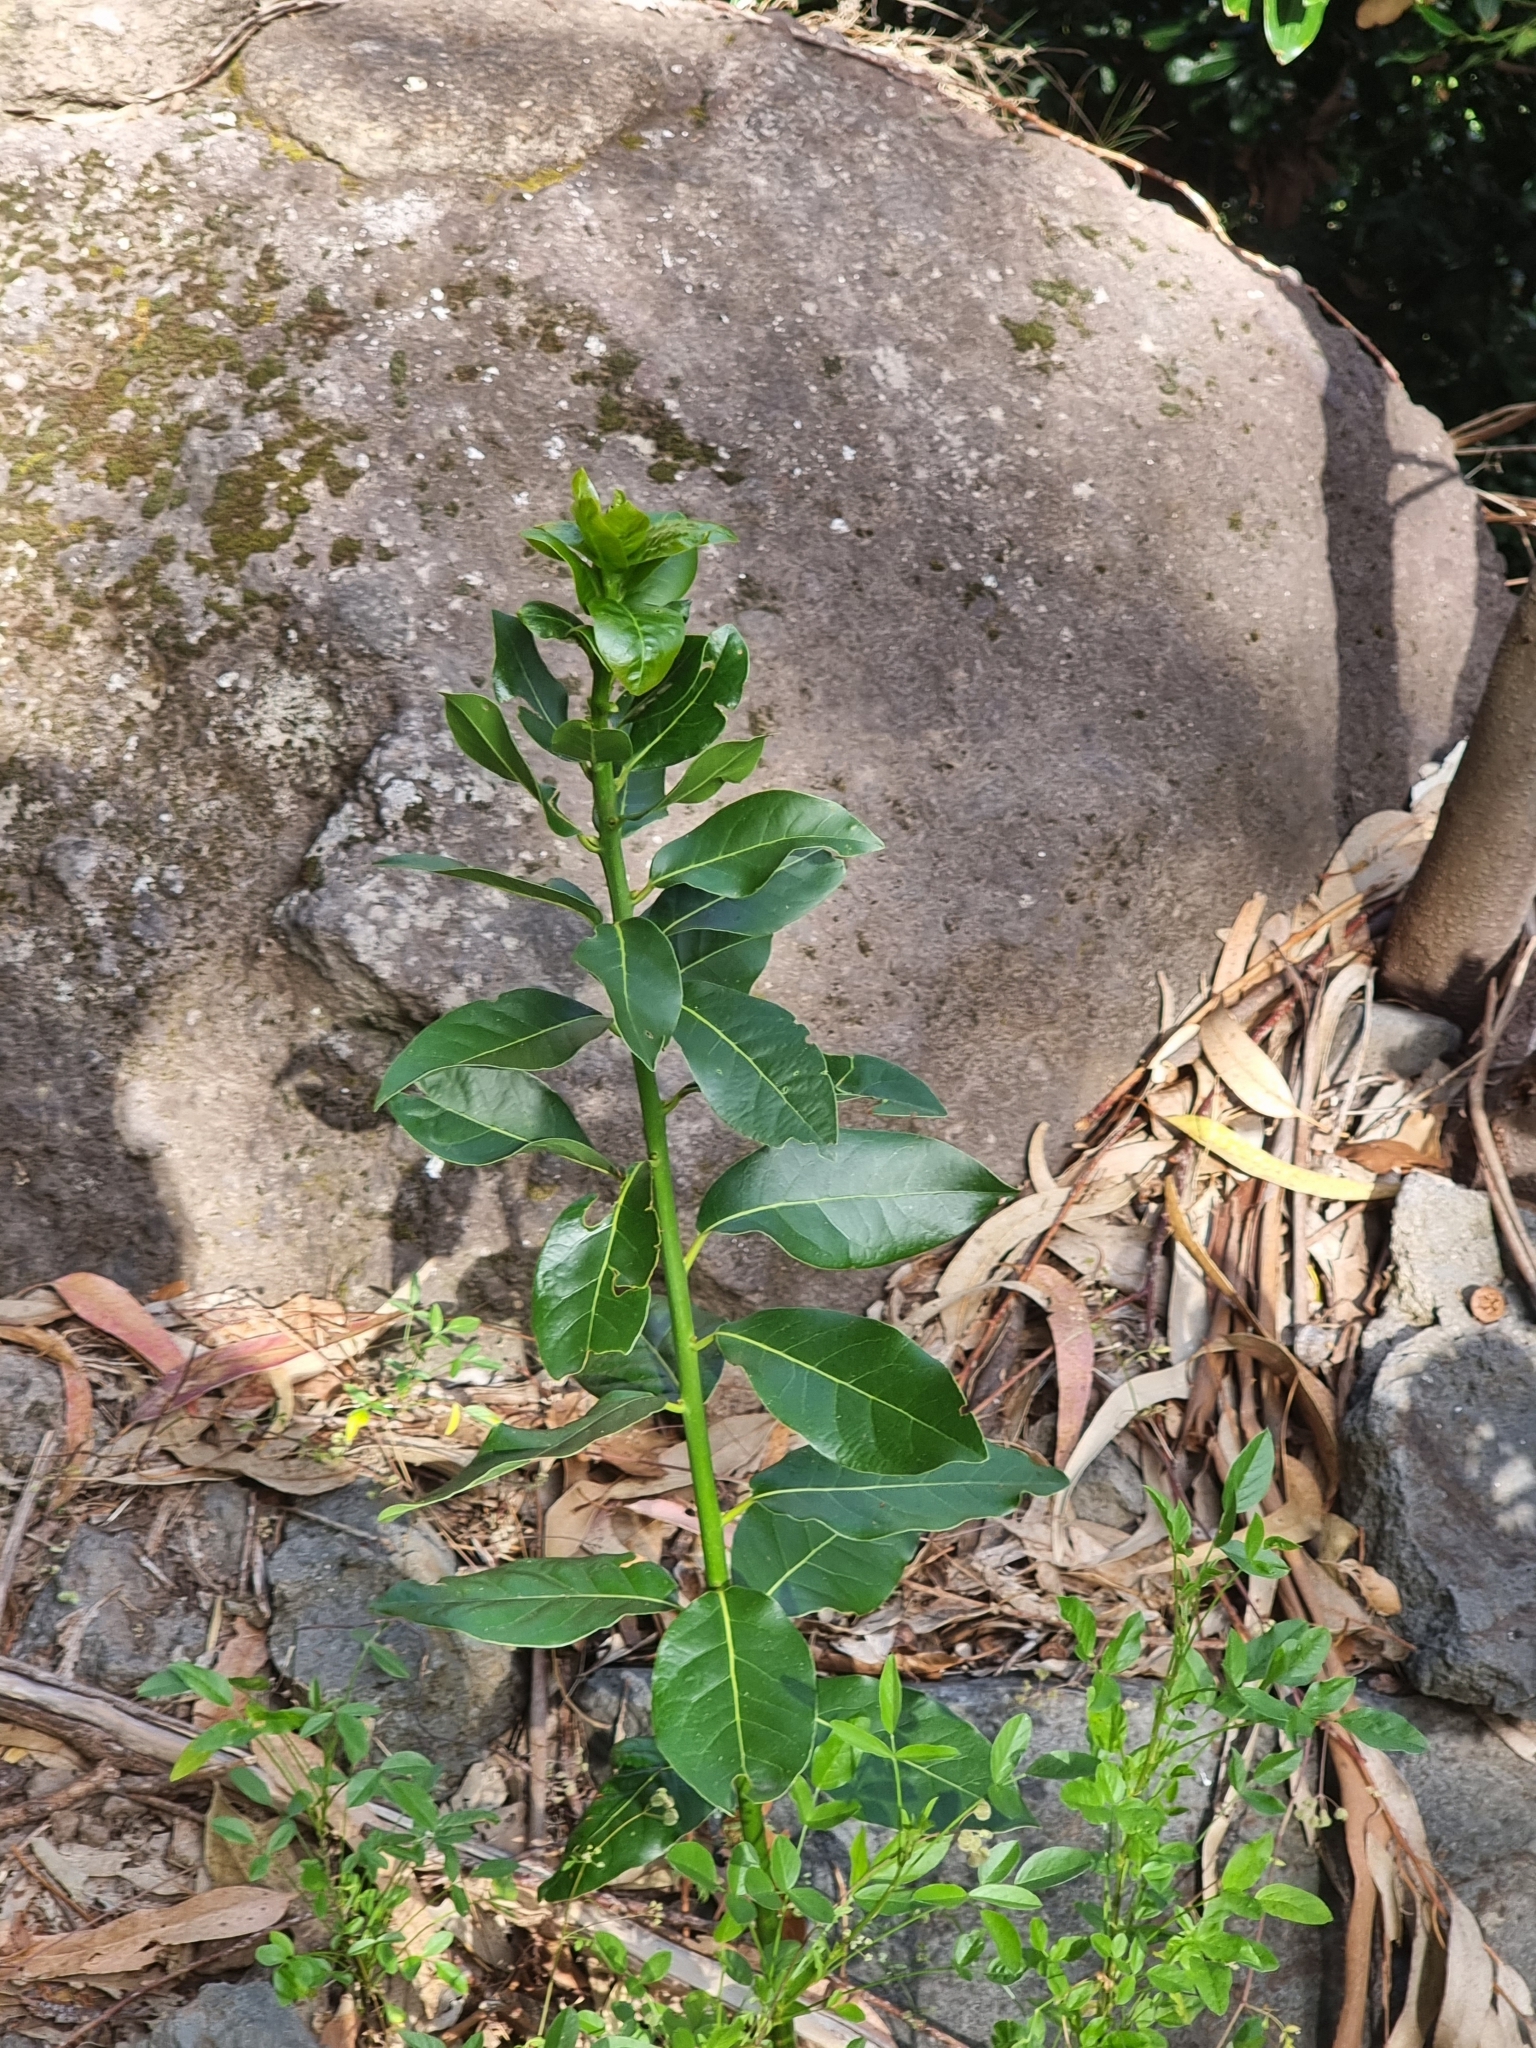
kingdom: Plantae
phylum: Tracheophyta
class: Magnoliopsida
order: Laurales
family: Lauraceae
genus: Laurus
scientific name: Laurus novocanariensis
